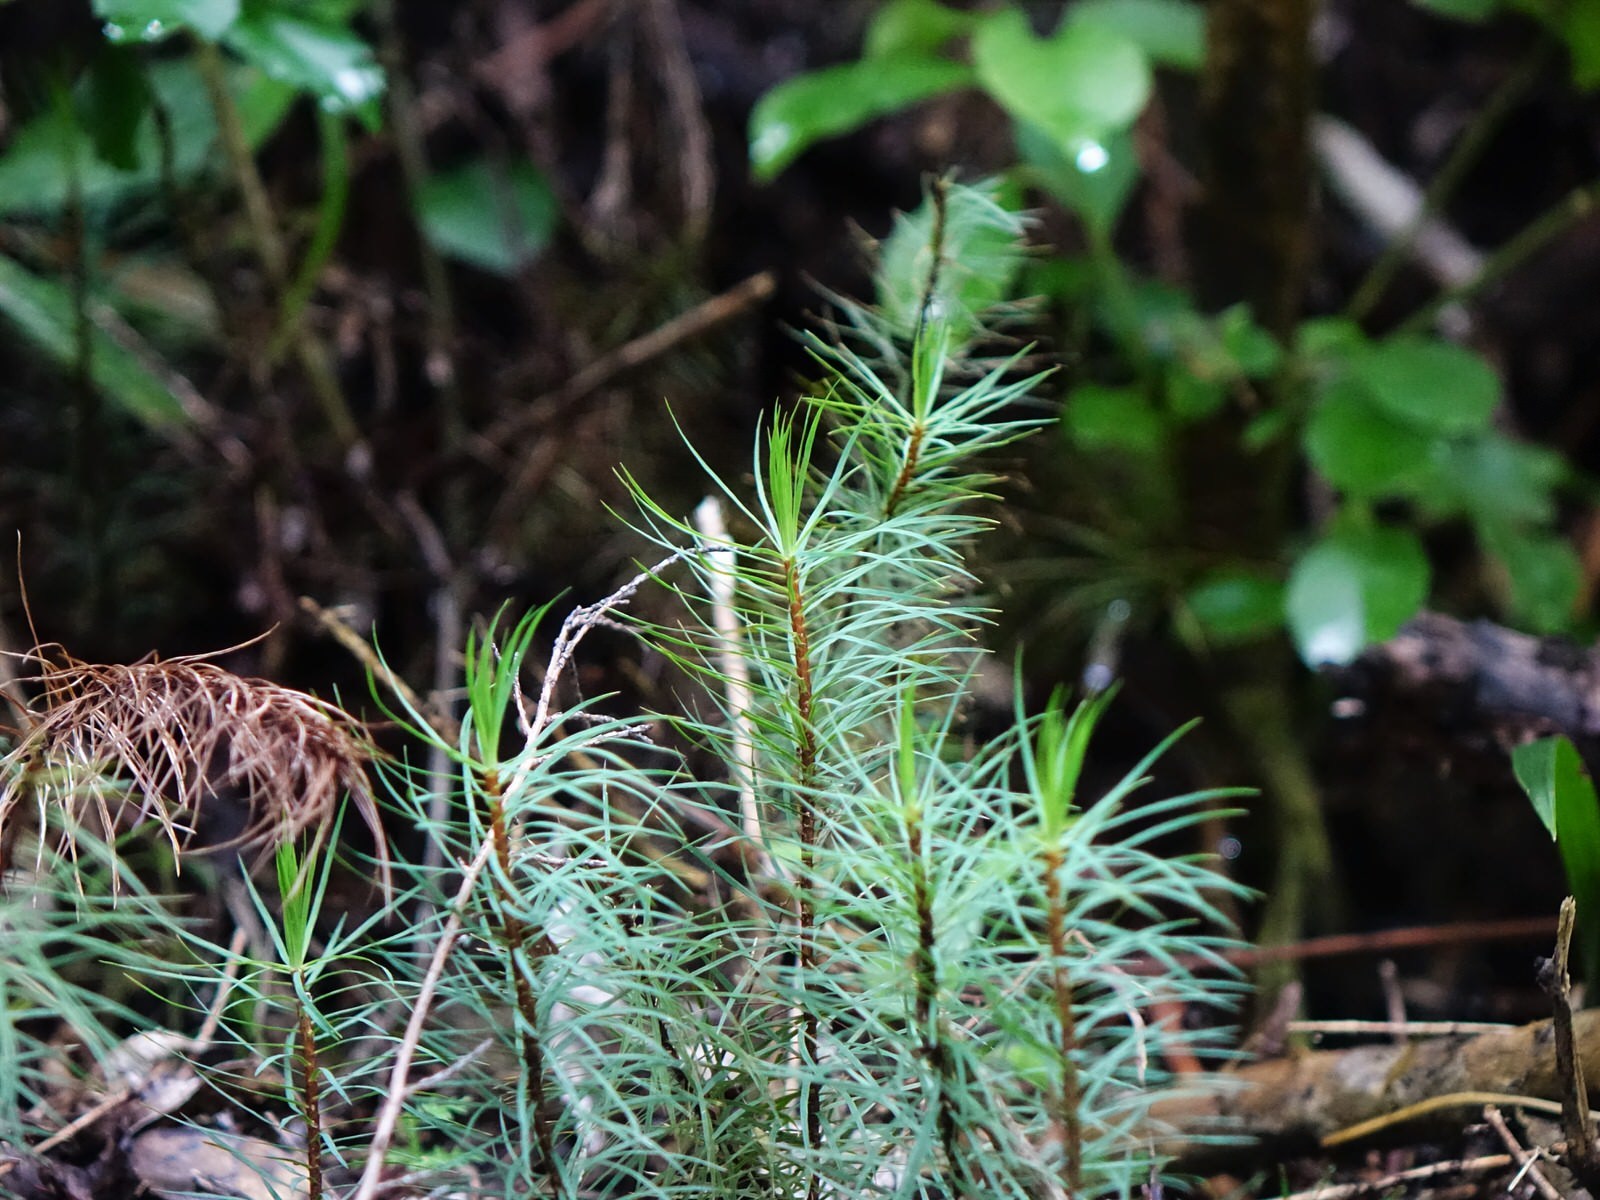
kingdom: Plantae
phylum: Bryophyta
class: Polytrichopsida
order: Polytrichales
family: Polytrichaceae
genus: Dawsonia
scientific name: Dawsonia superba
